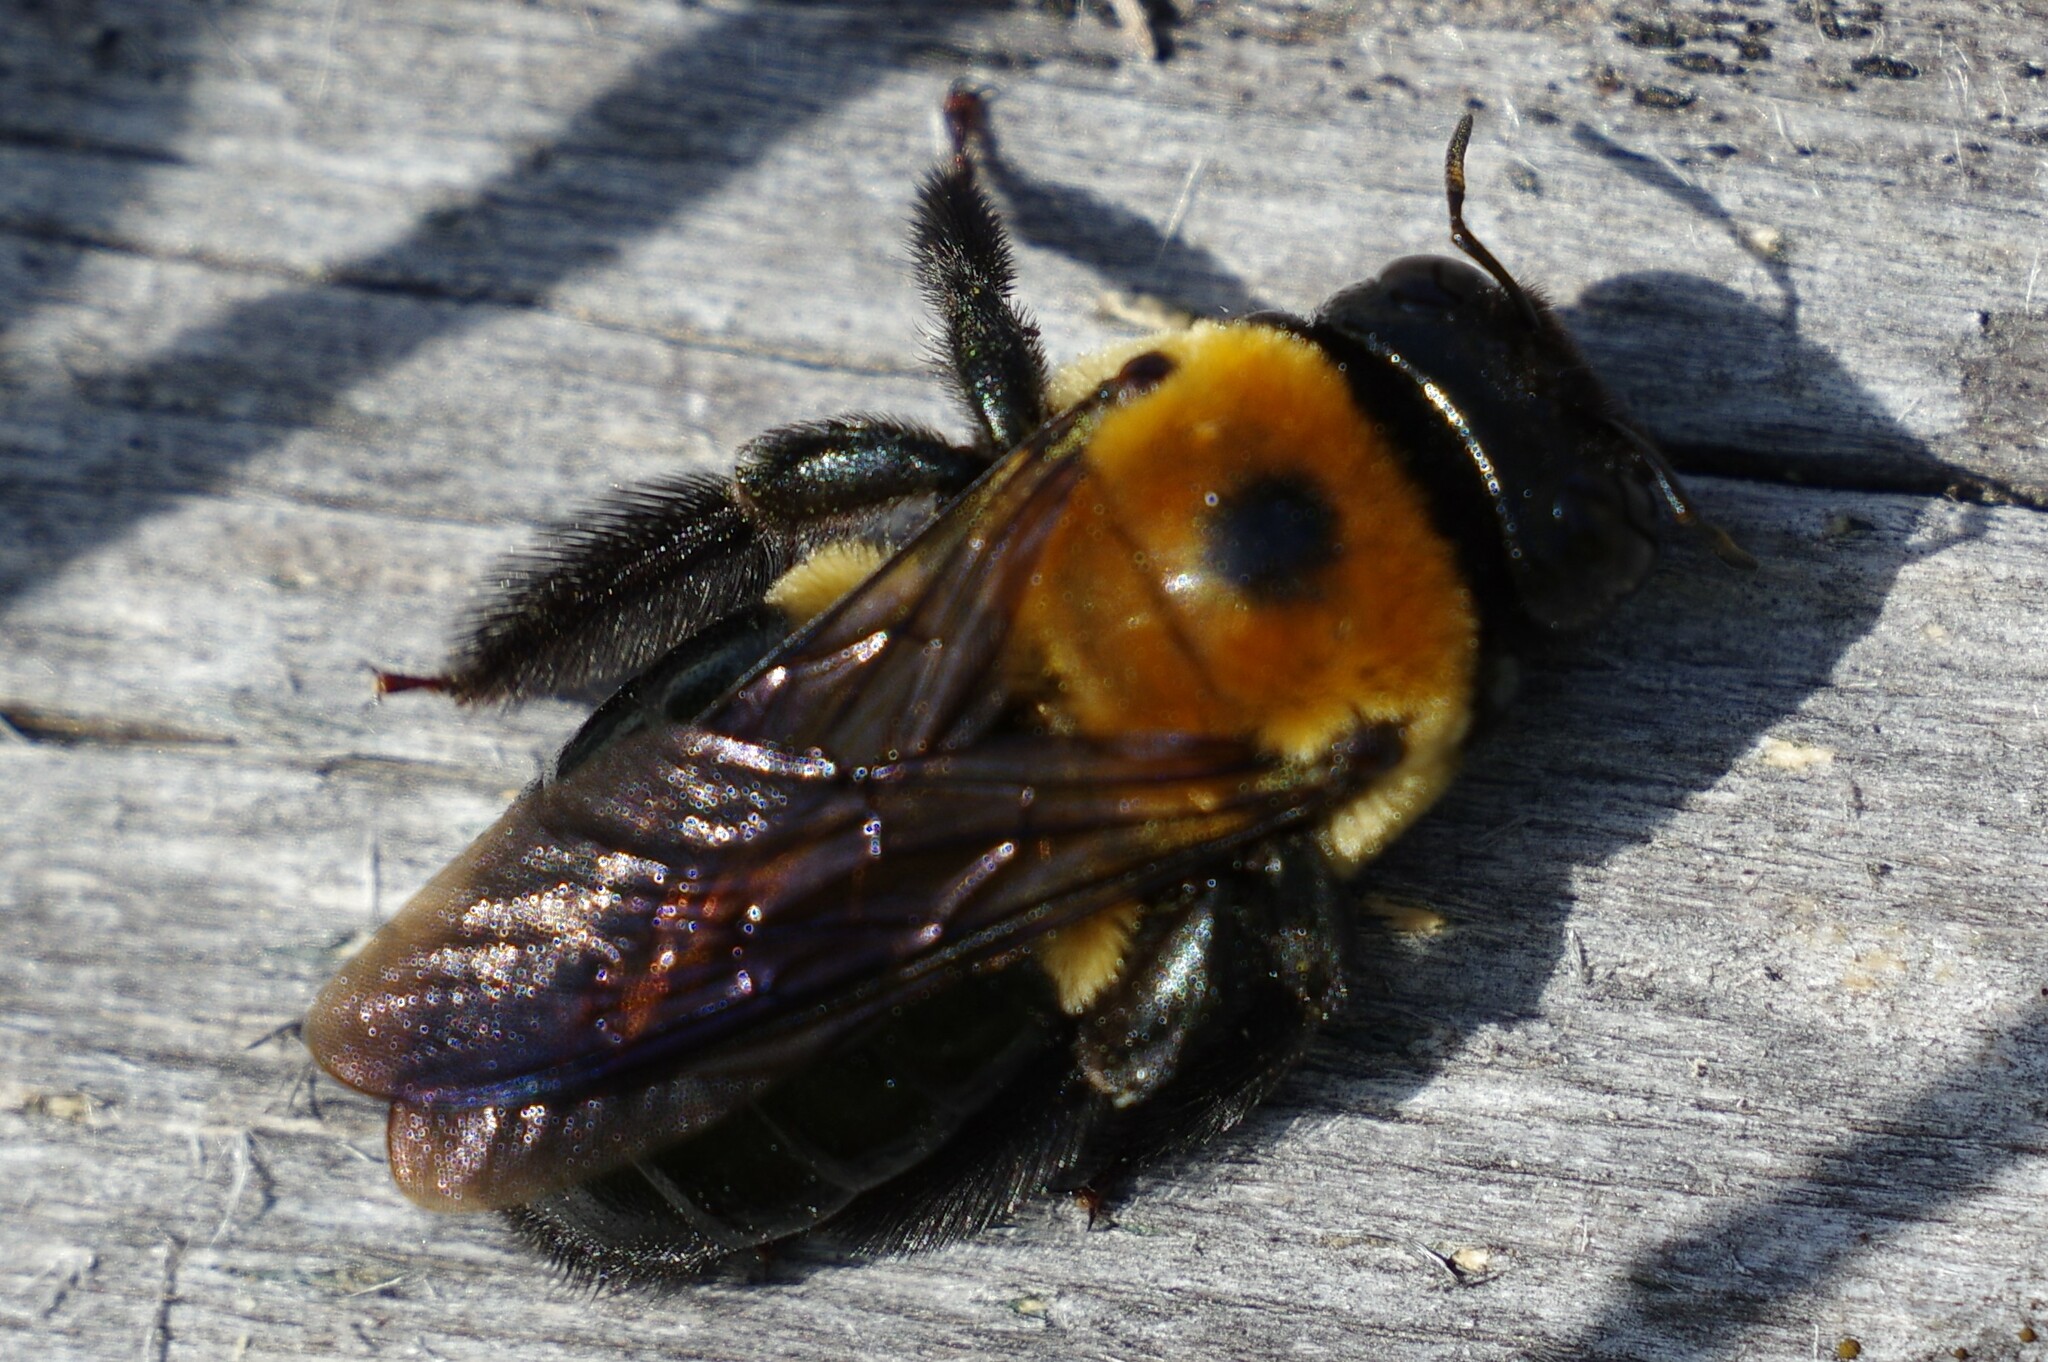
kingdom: Animalia
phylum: Arthropoda
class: Insecta
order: Hymenoptera
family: Apidae
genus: Xylocopa
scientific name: Xylocopa virginica
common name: Carpenter bee
